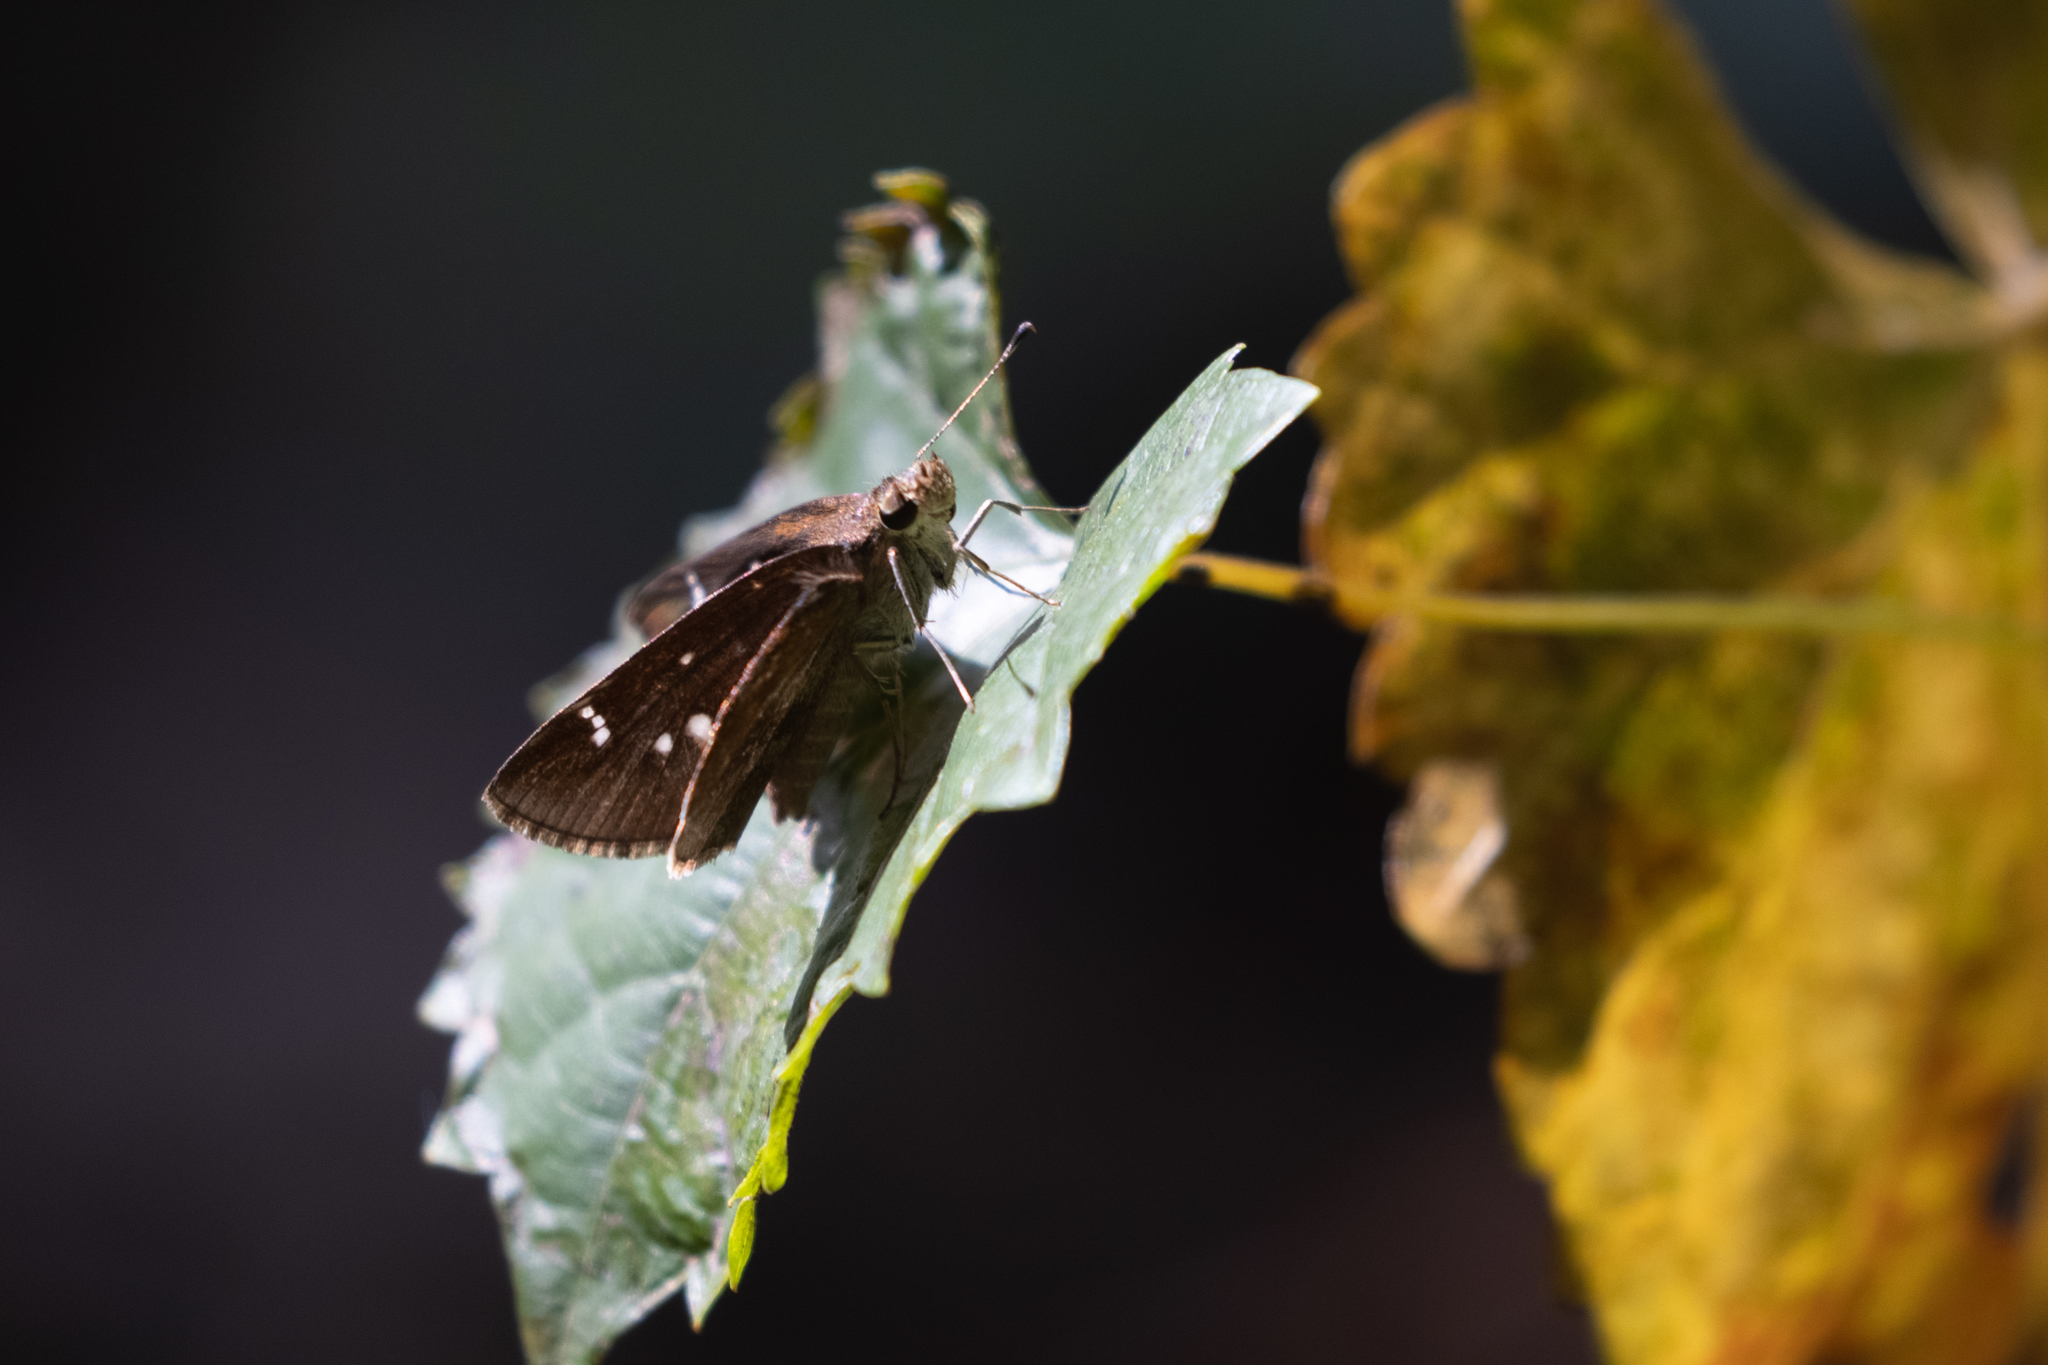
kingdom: Animalia
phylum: Arthropoda
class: Insecta
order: Lepidoptera
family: Hesperiidae
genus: Lerema
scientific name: Lerema accius
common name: Clouded skipper
